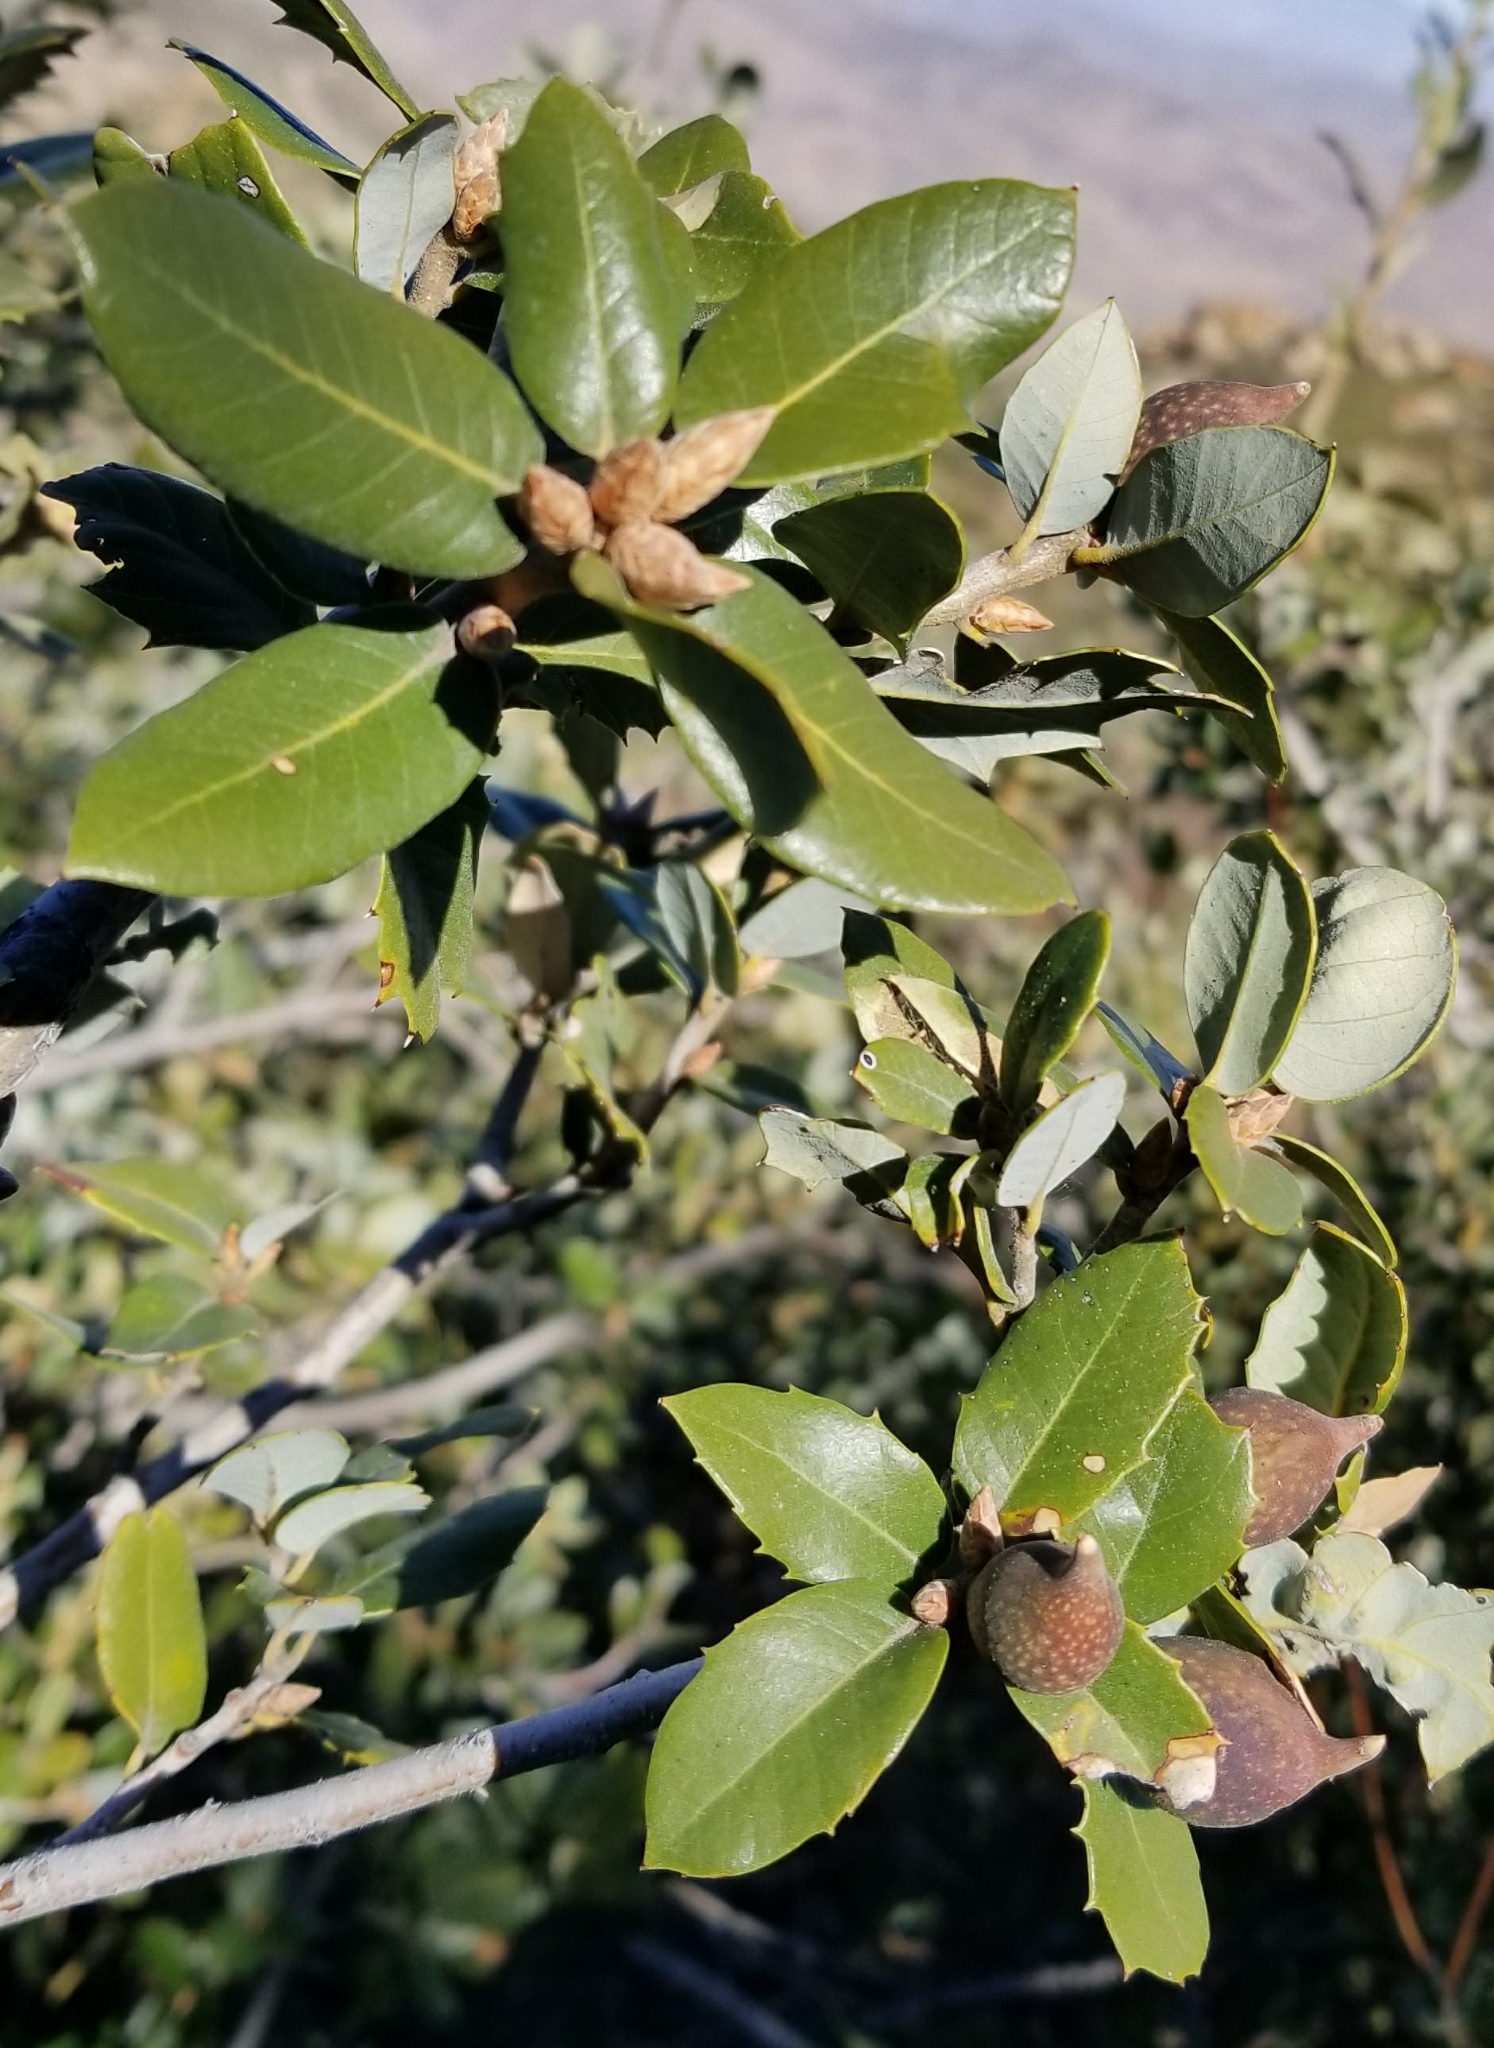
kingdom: Plantae
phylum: Tracheophyta
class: Magnoliopsida
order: Fagales
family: Fagaceae
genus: Quercus
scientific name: Quercus chrysolepis
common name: Canyon live oak
